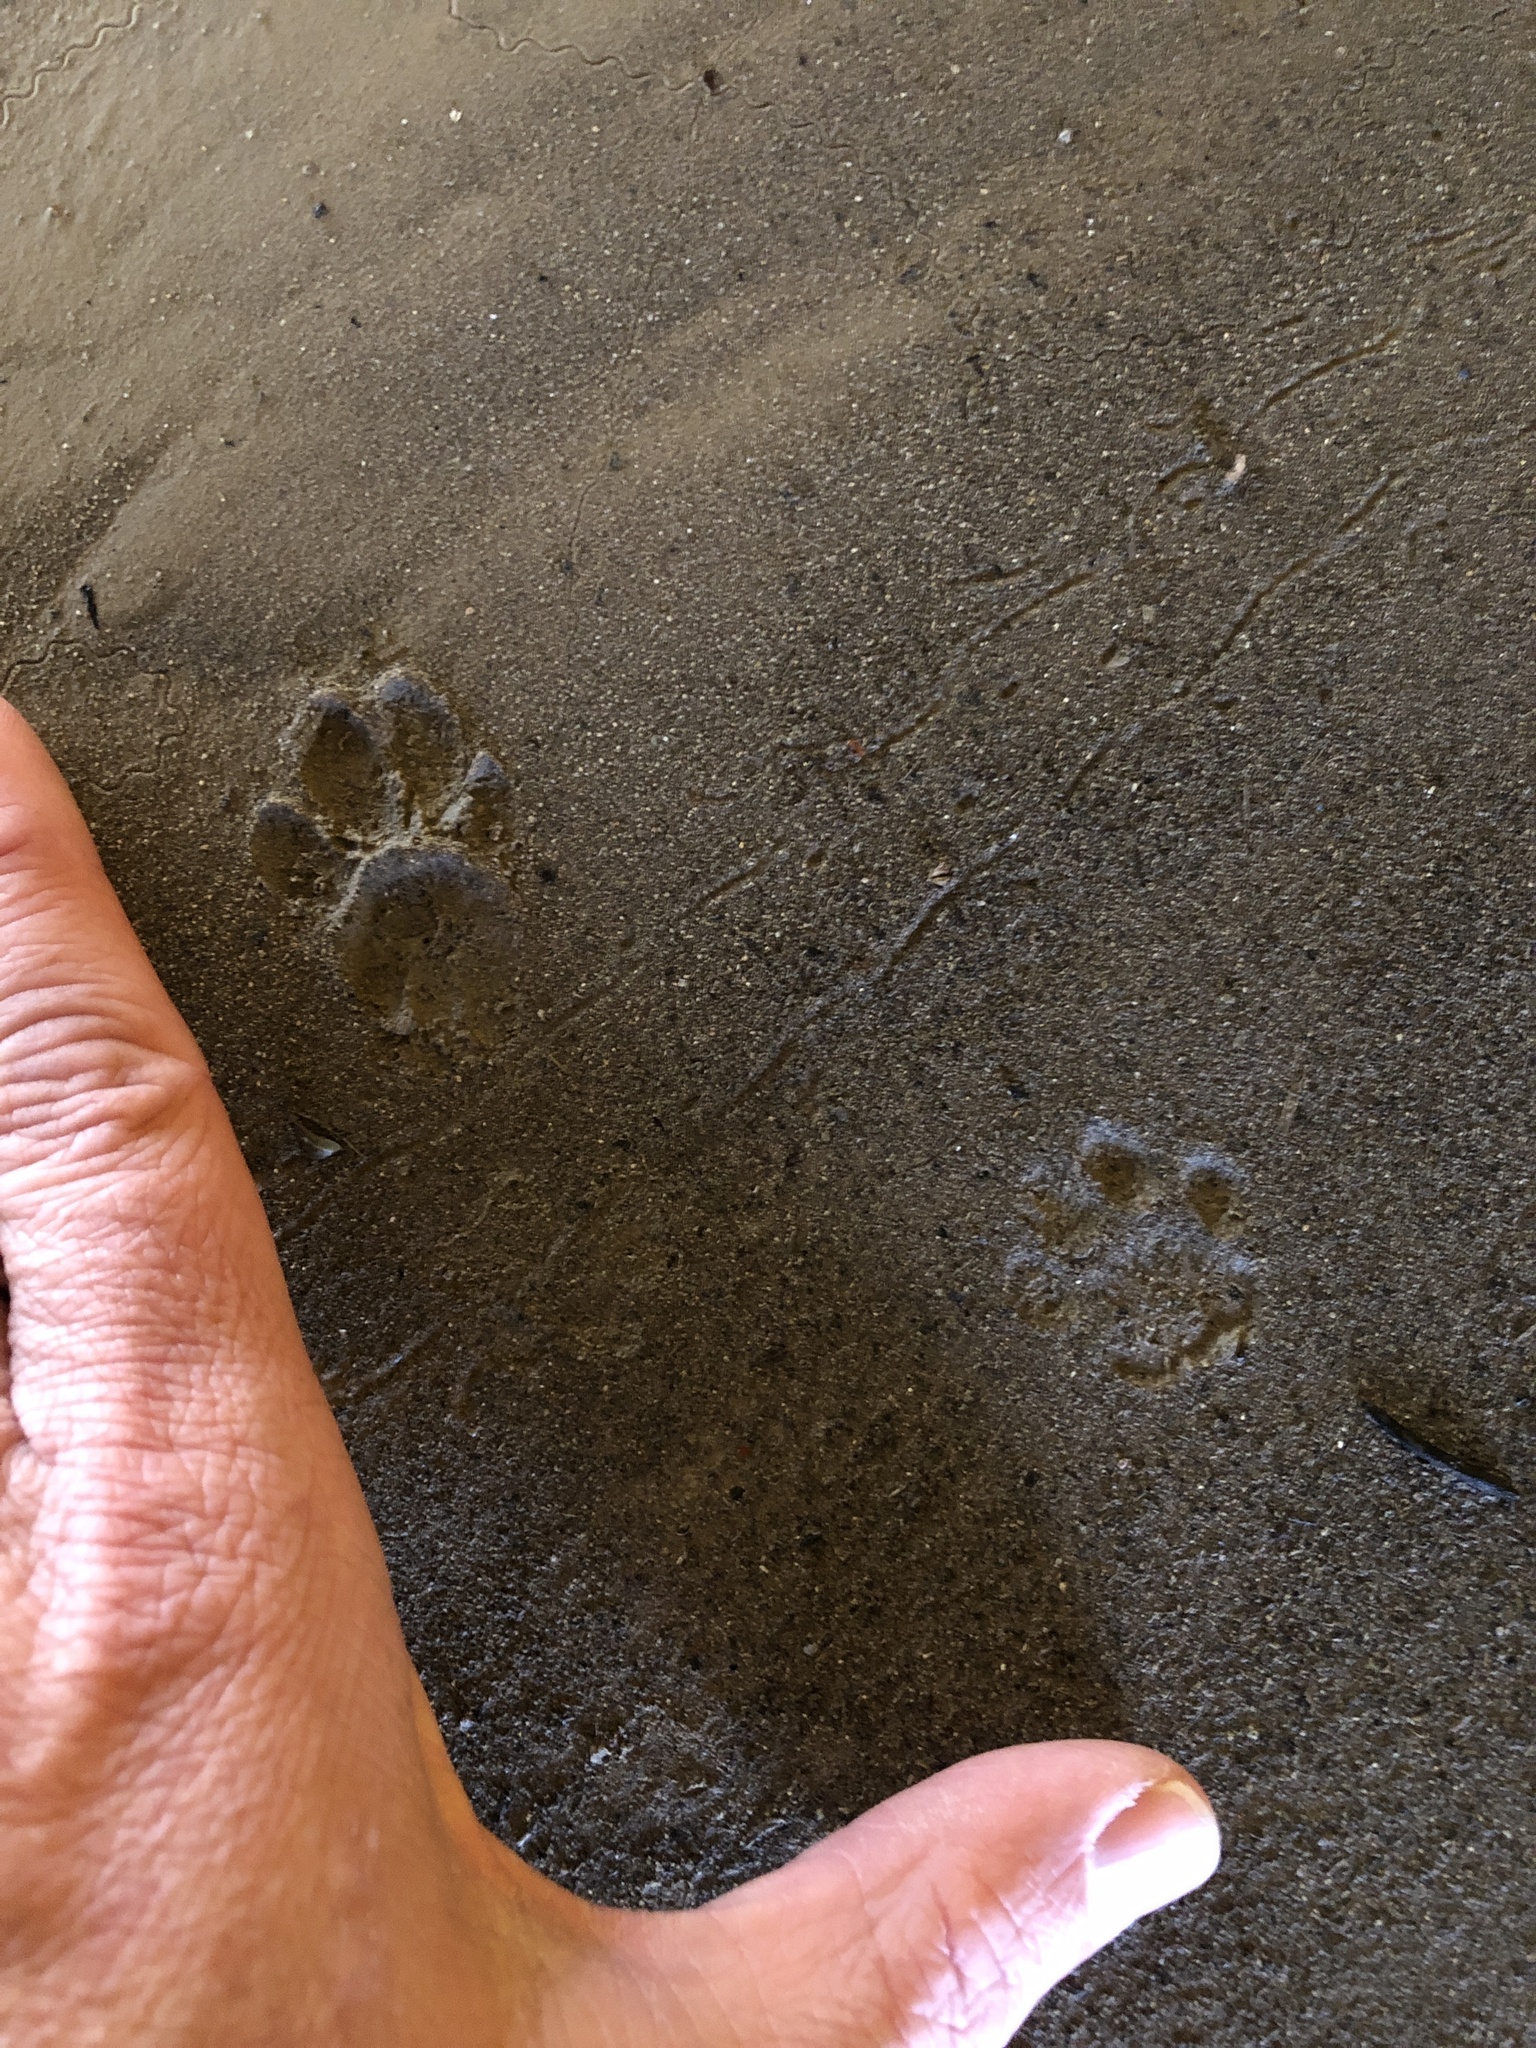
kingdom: Animalia
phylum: Chordata
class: Mammalia
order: Carnivora
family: Felidae
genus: Felis
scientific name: Felis catus
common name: Domestic cat
